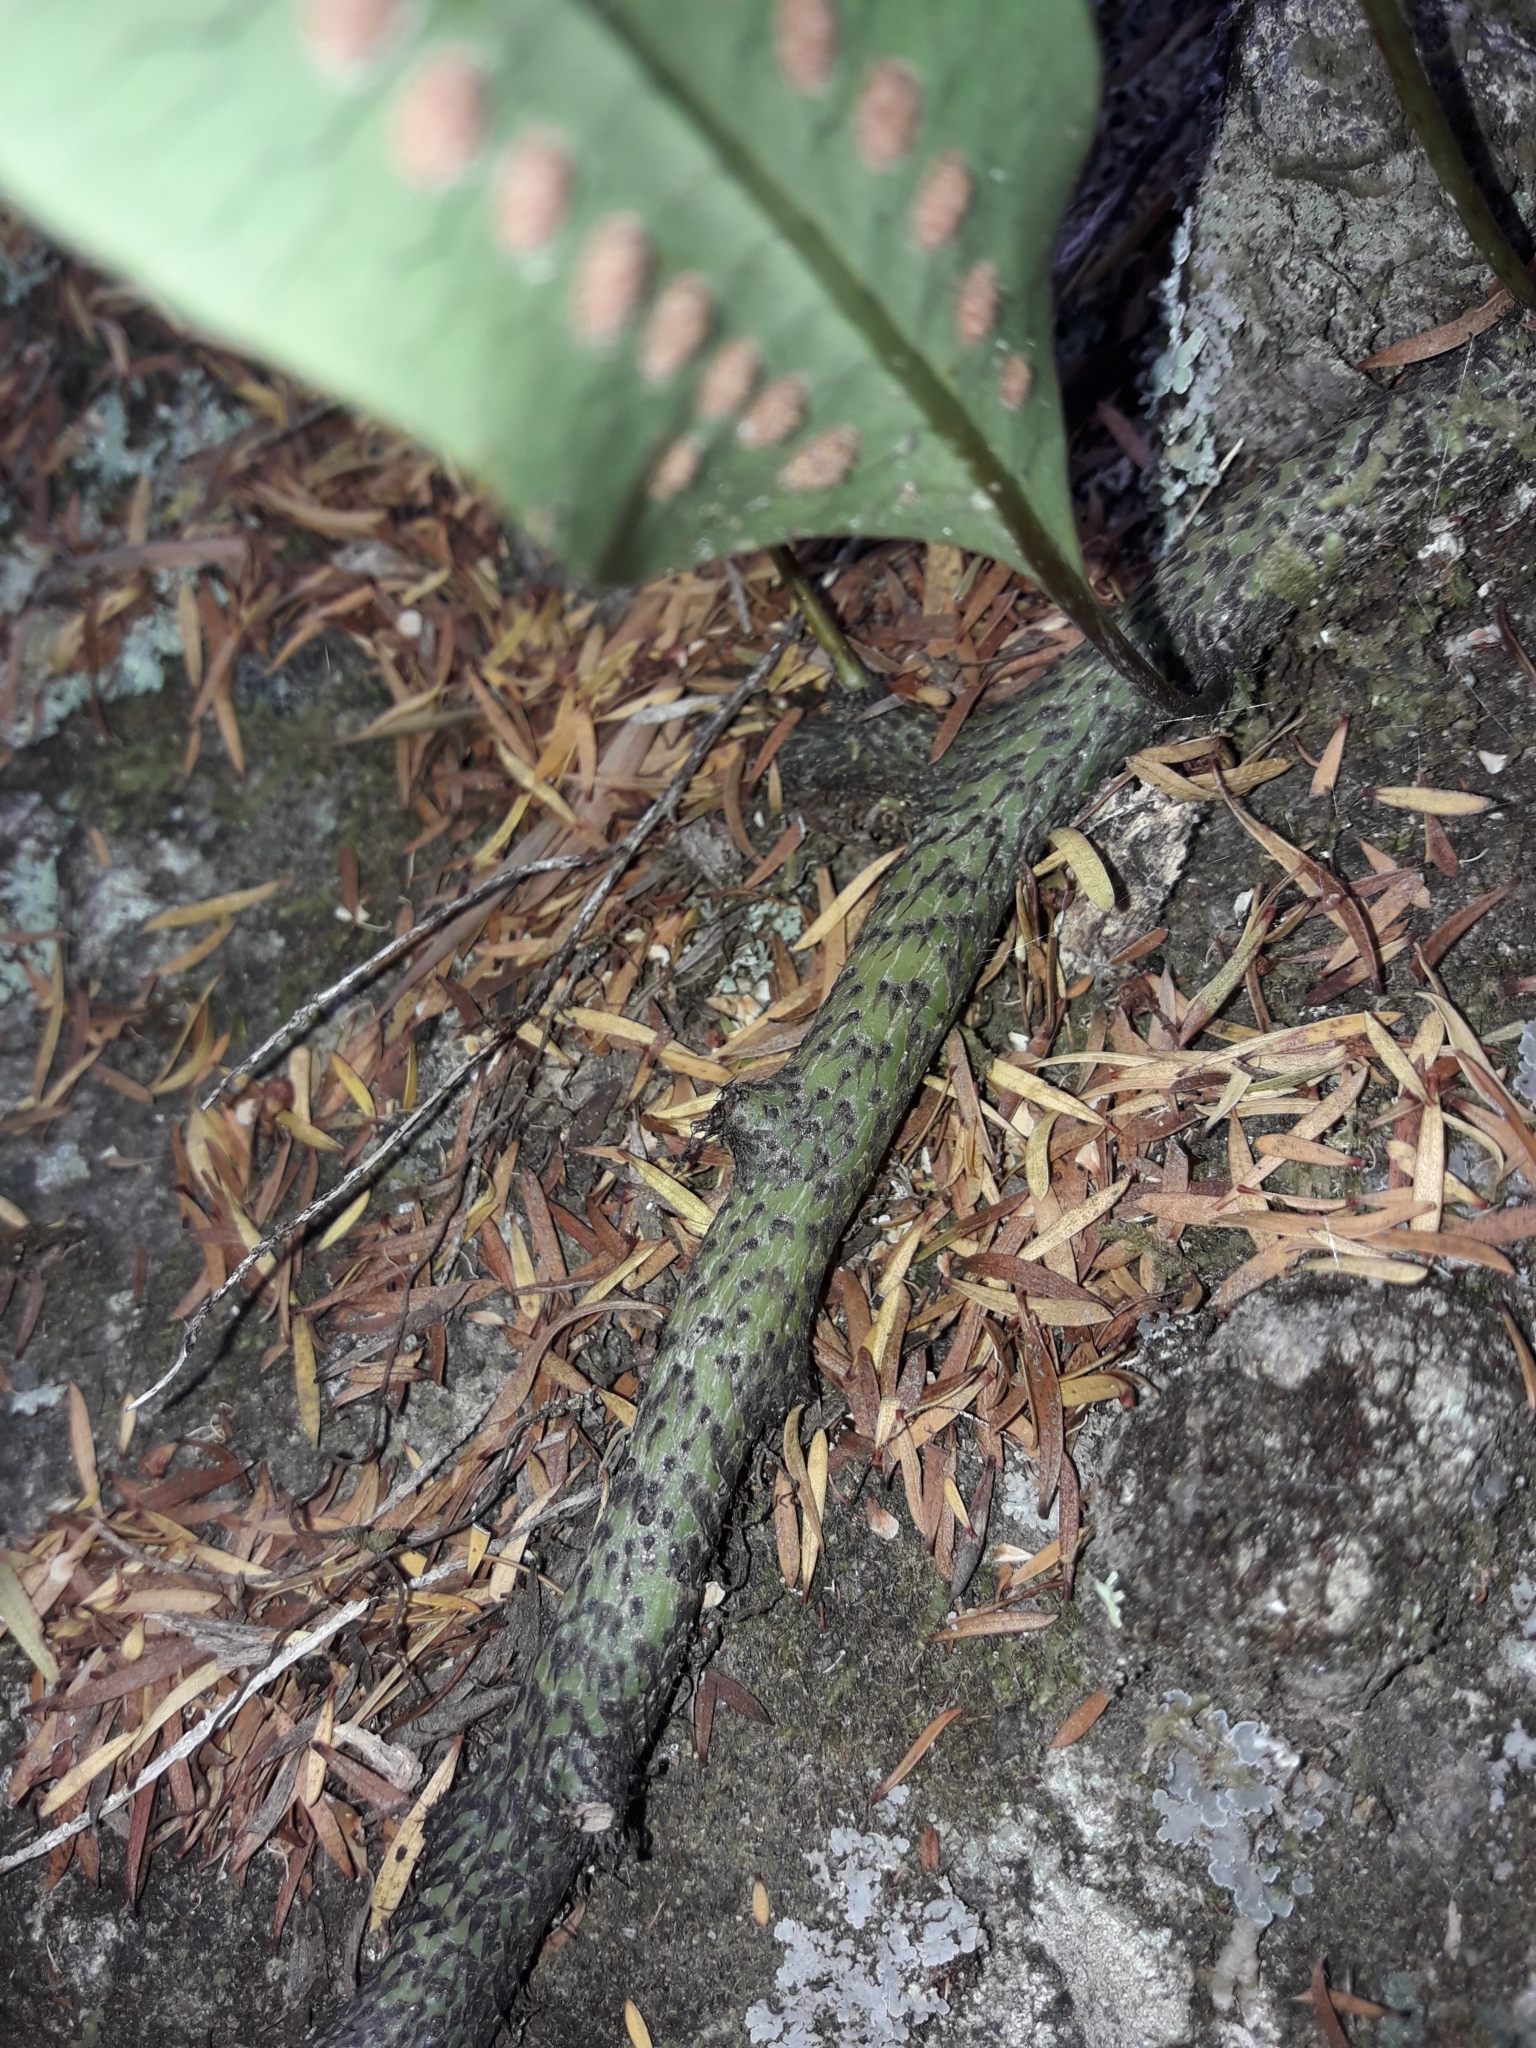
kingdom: Plantae
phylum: Tracheophyta
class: Polypodiopsida
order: Polypodiales
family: Polypodiaceae
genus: Lecanopteris
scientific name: Lecanopteris pustulata
